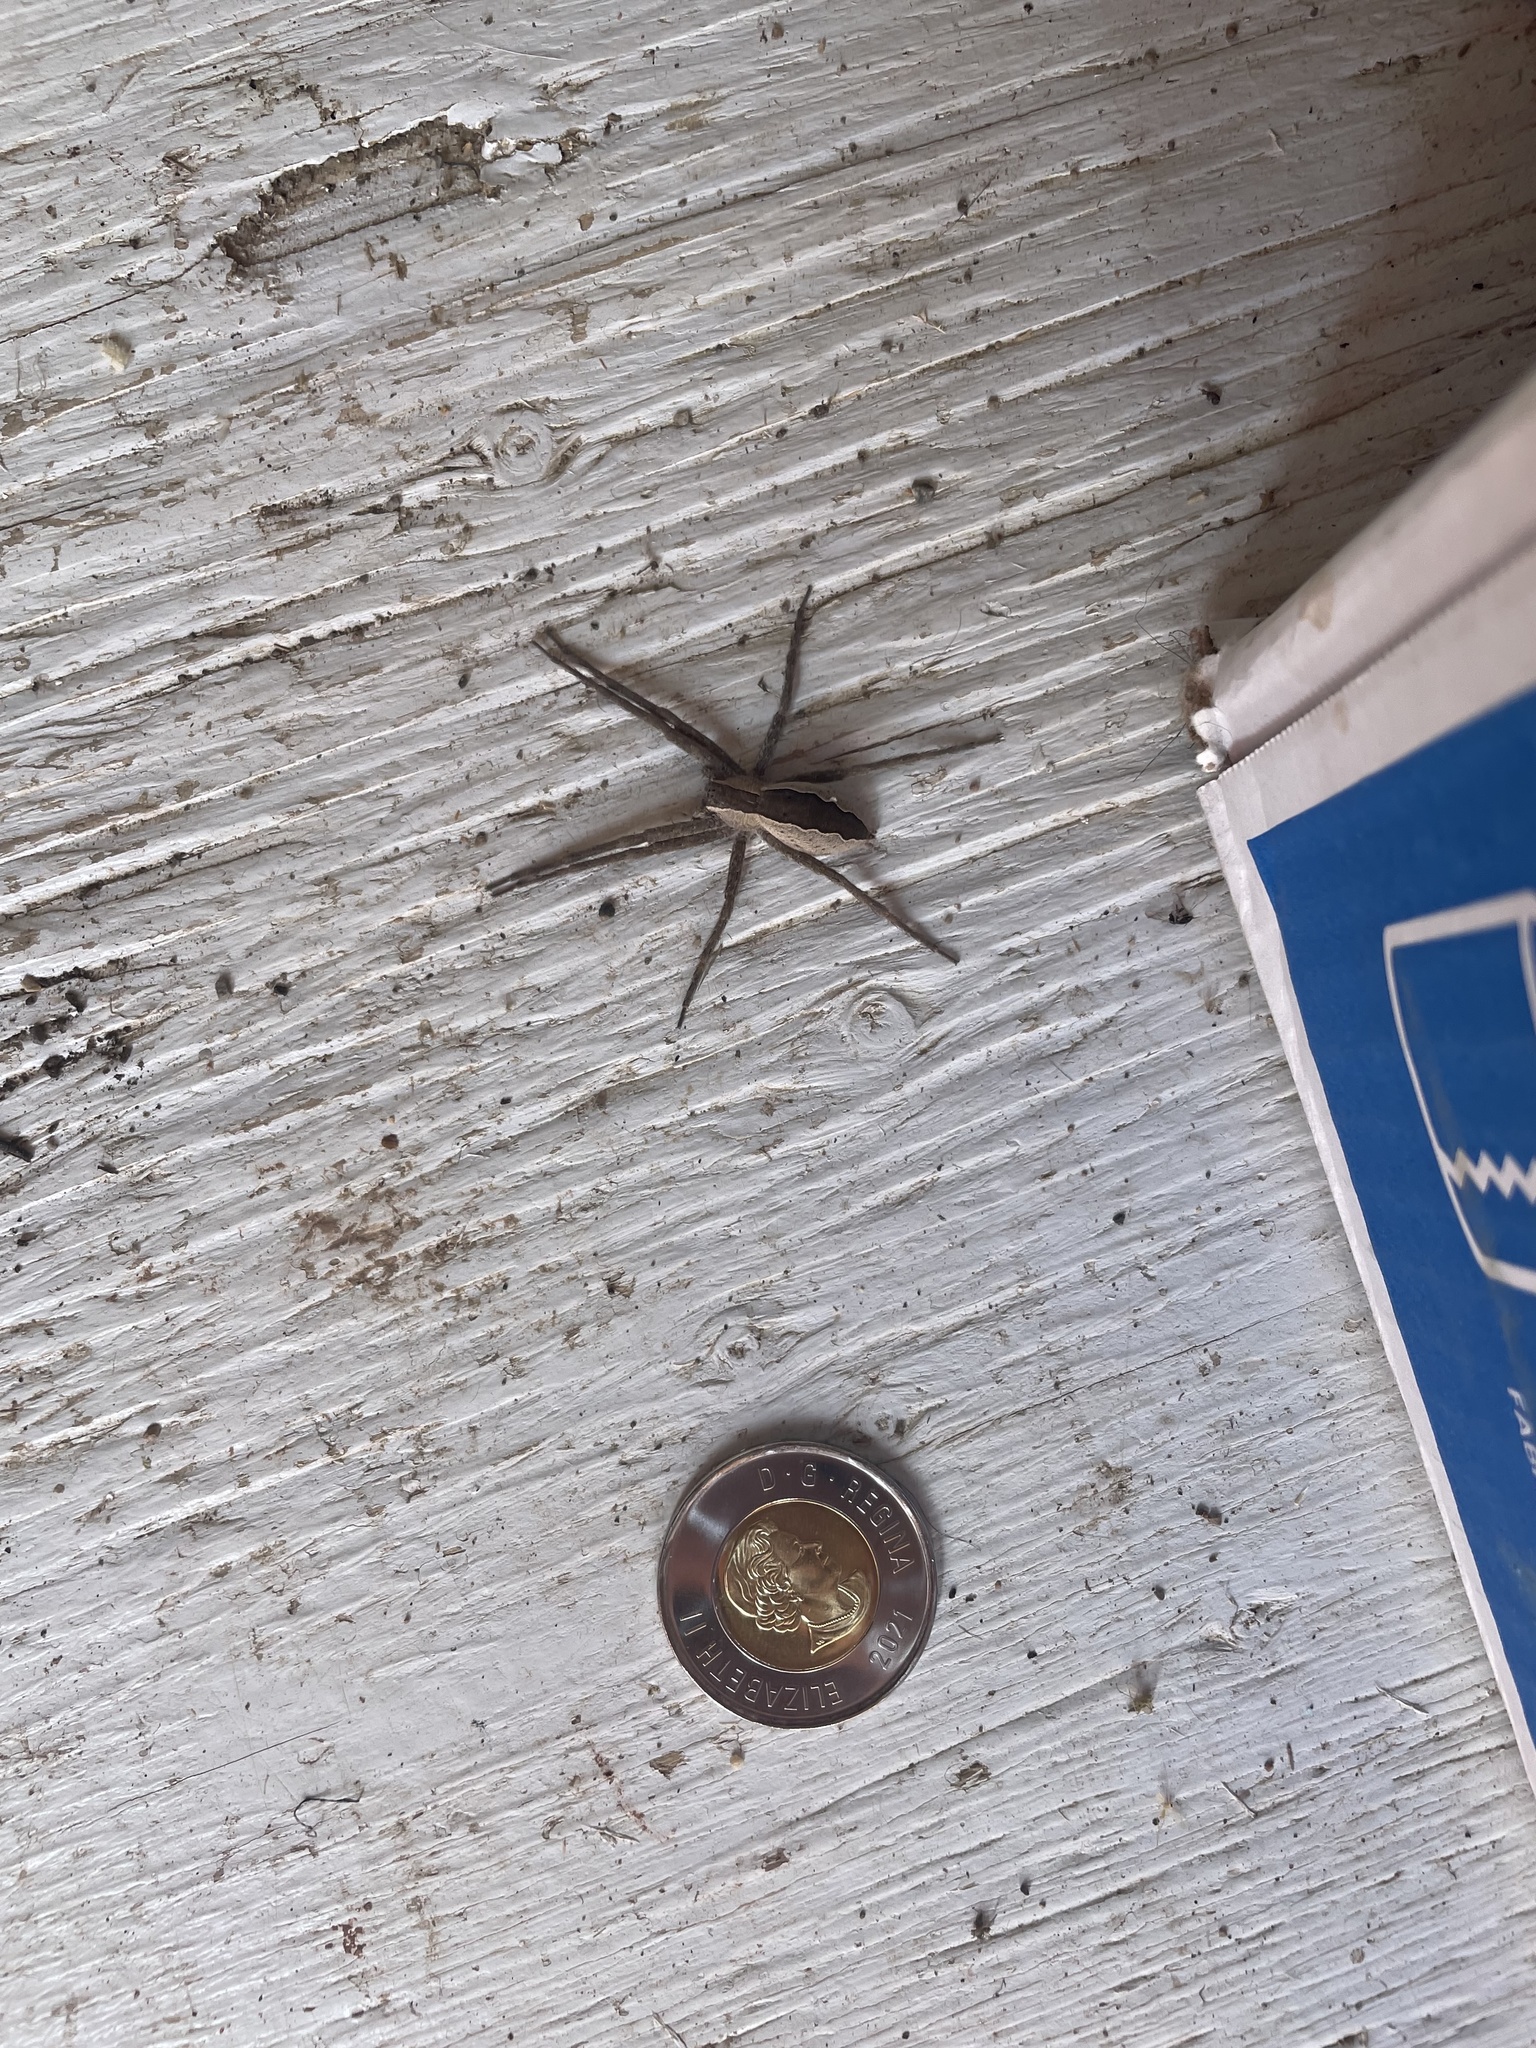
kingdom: Animalia
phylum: Arthropoda
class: Arachnida
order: Araneae
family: Pisauridae
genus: Pisaurina
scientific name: Pisaurina mira
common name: American nursery web spider
